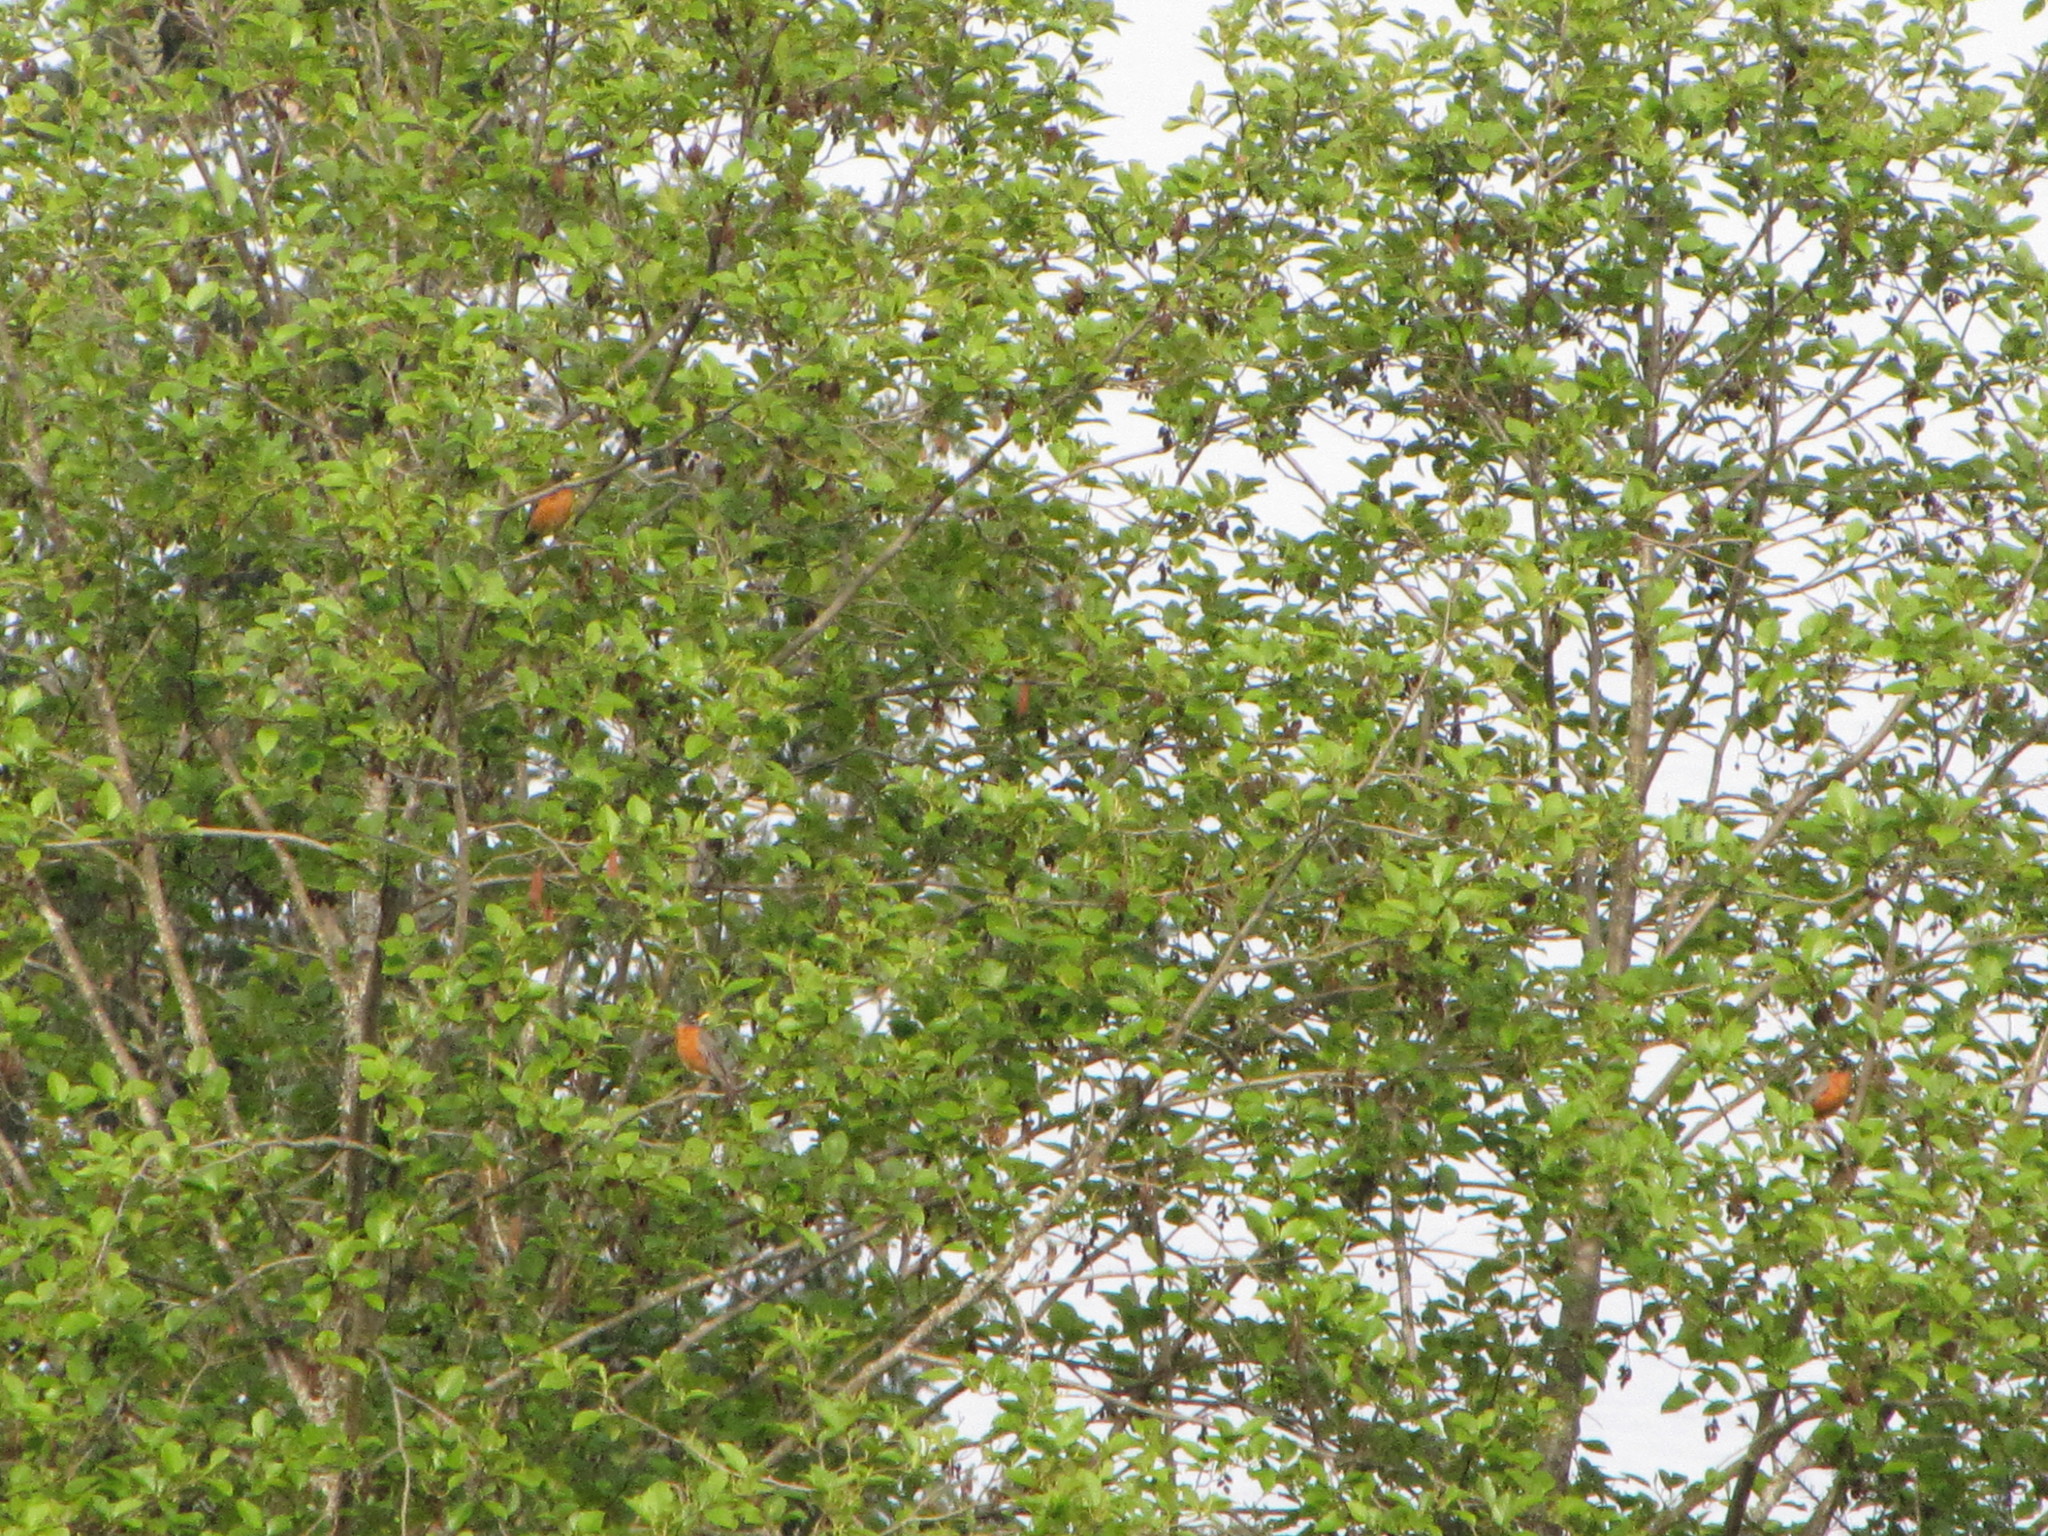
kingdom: Animalia
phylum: Chordata
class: Aves
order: Passeriformes
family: Turdidae
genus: Turdus
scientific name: Turdus migratorius
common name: American robin
